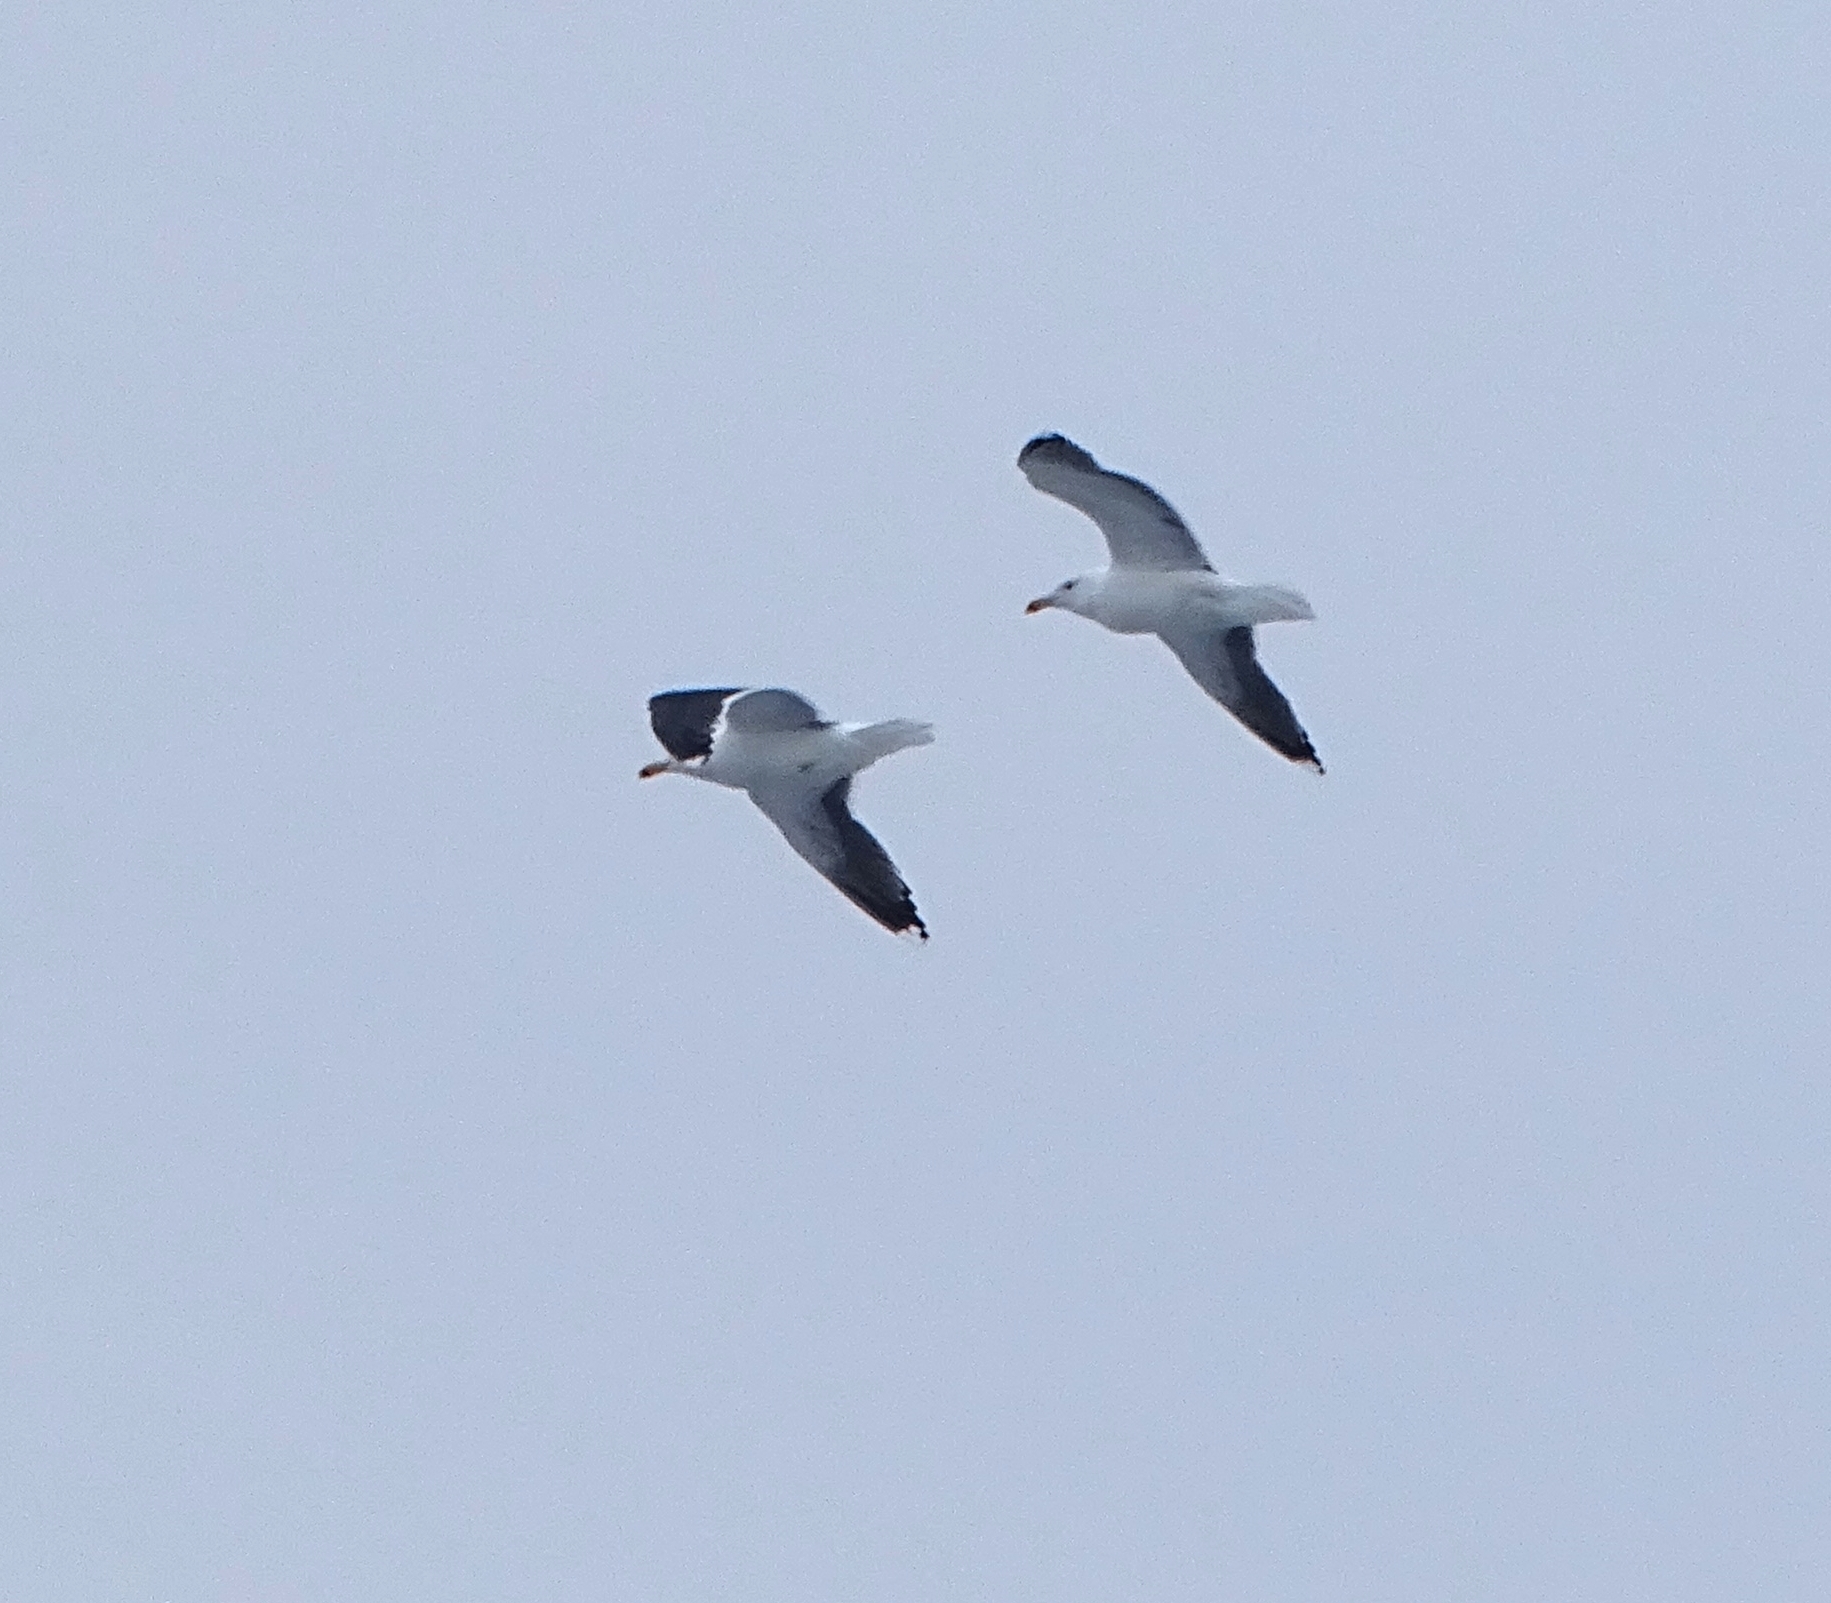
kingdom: Animalia
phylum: Chordata
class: Aves
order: Charadriiformes
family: Laridae
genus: Larus
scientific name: Larus marinus
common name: Great black-backed gull
